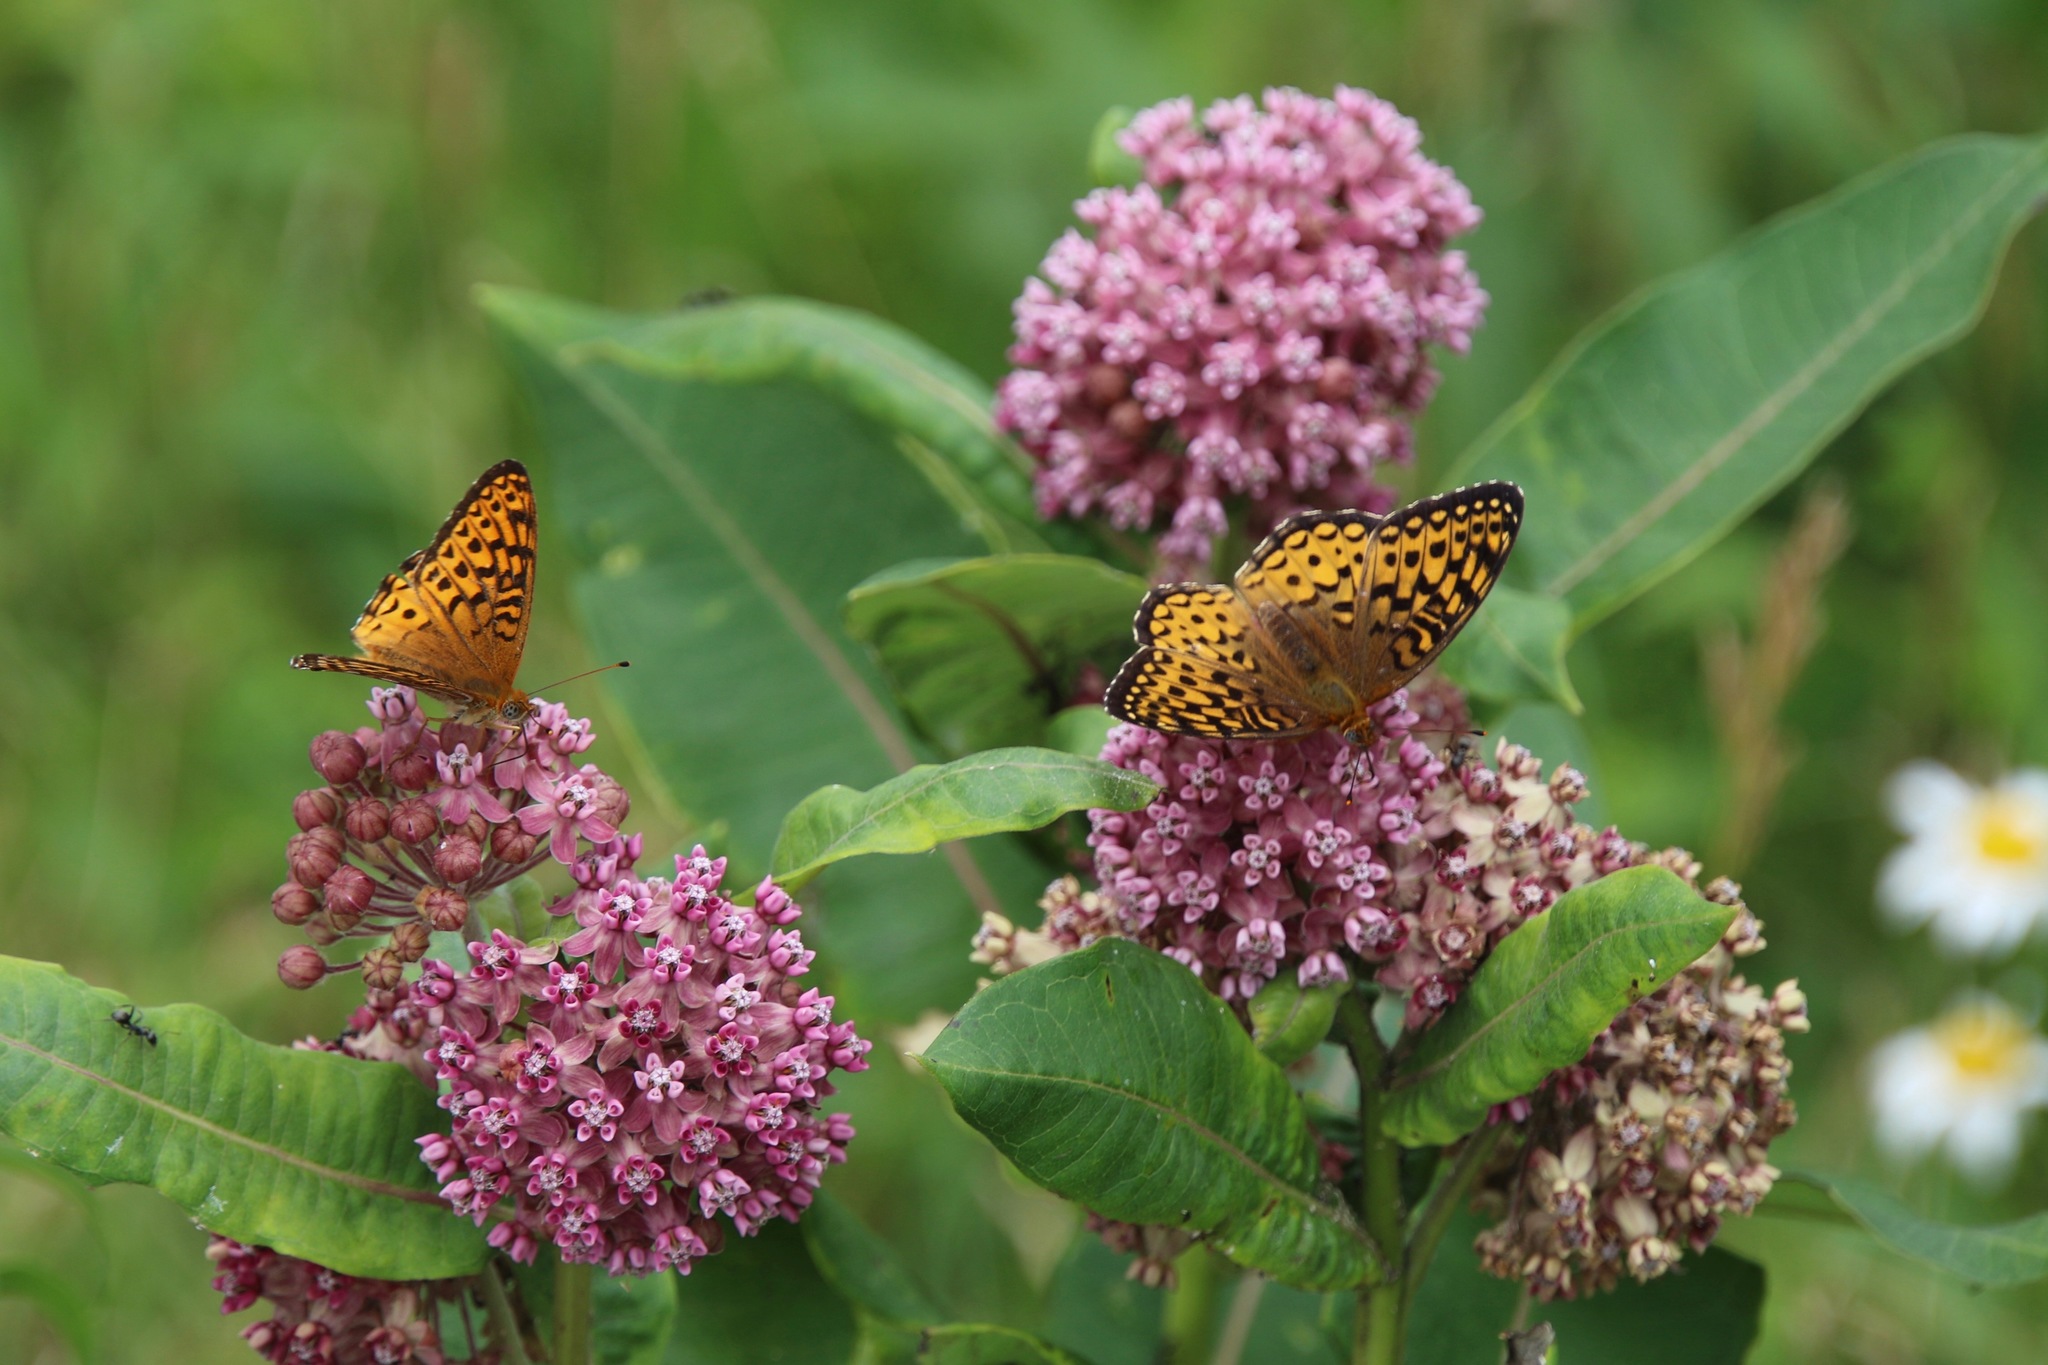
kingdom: Animalia
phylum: Arthropoda
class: Insecta
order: Lepidoptera
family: Nymphalidae
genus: Speyeria
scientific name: Speyeria atlantis
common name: Atlantis fritillary
